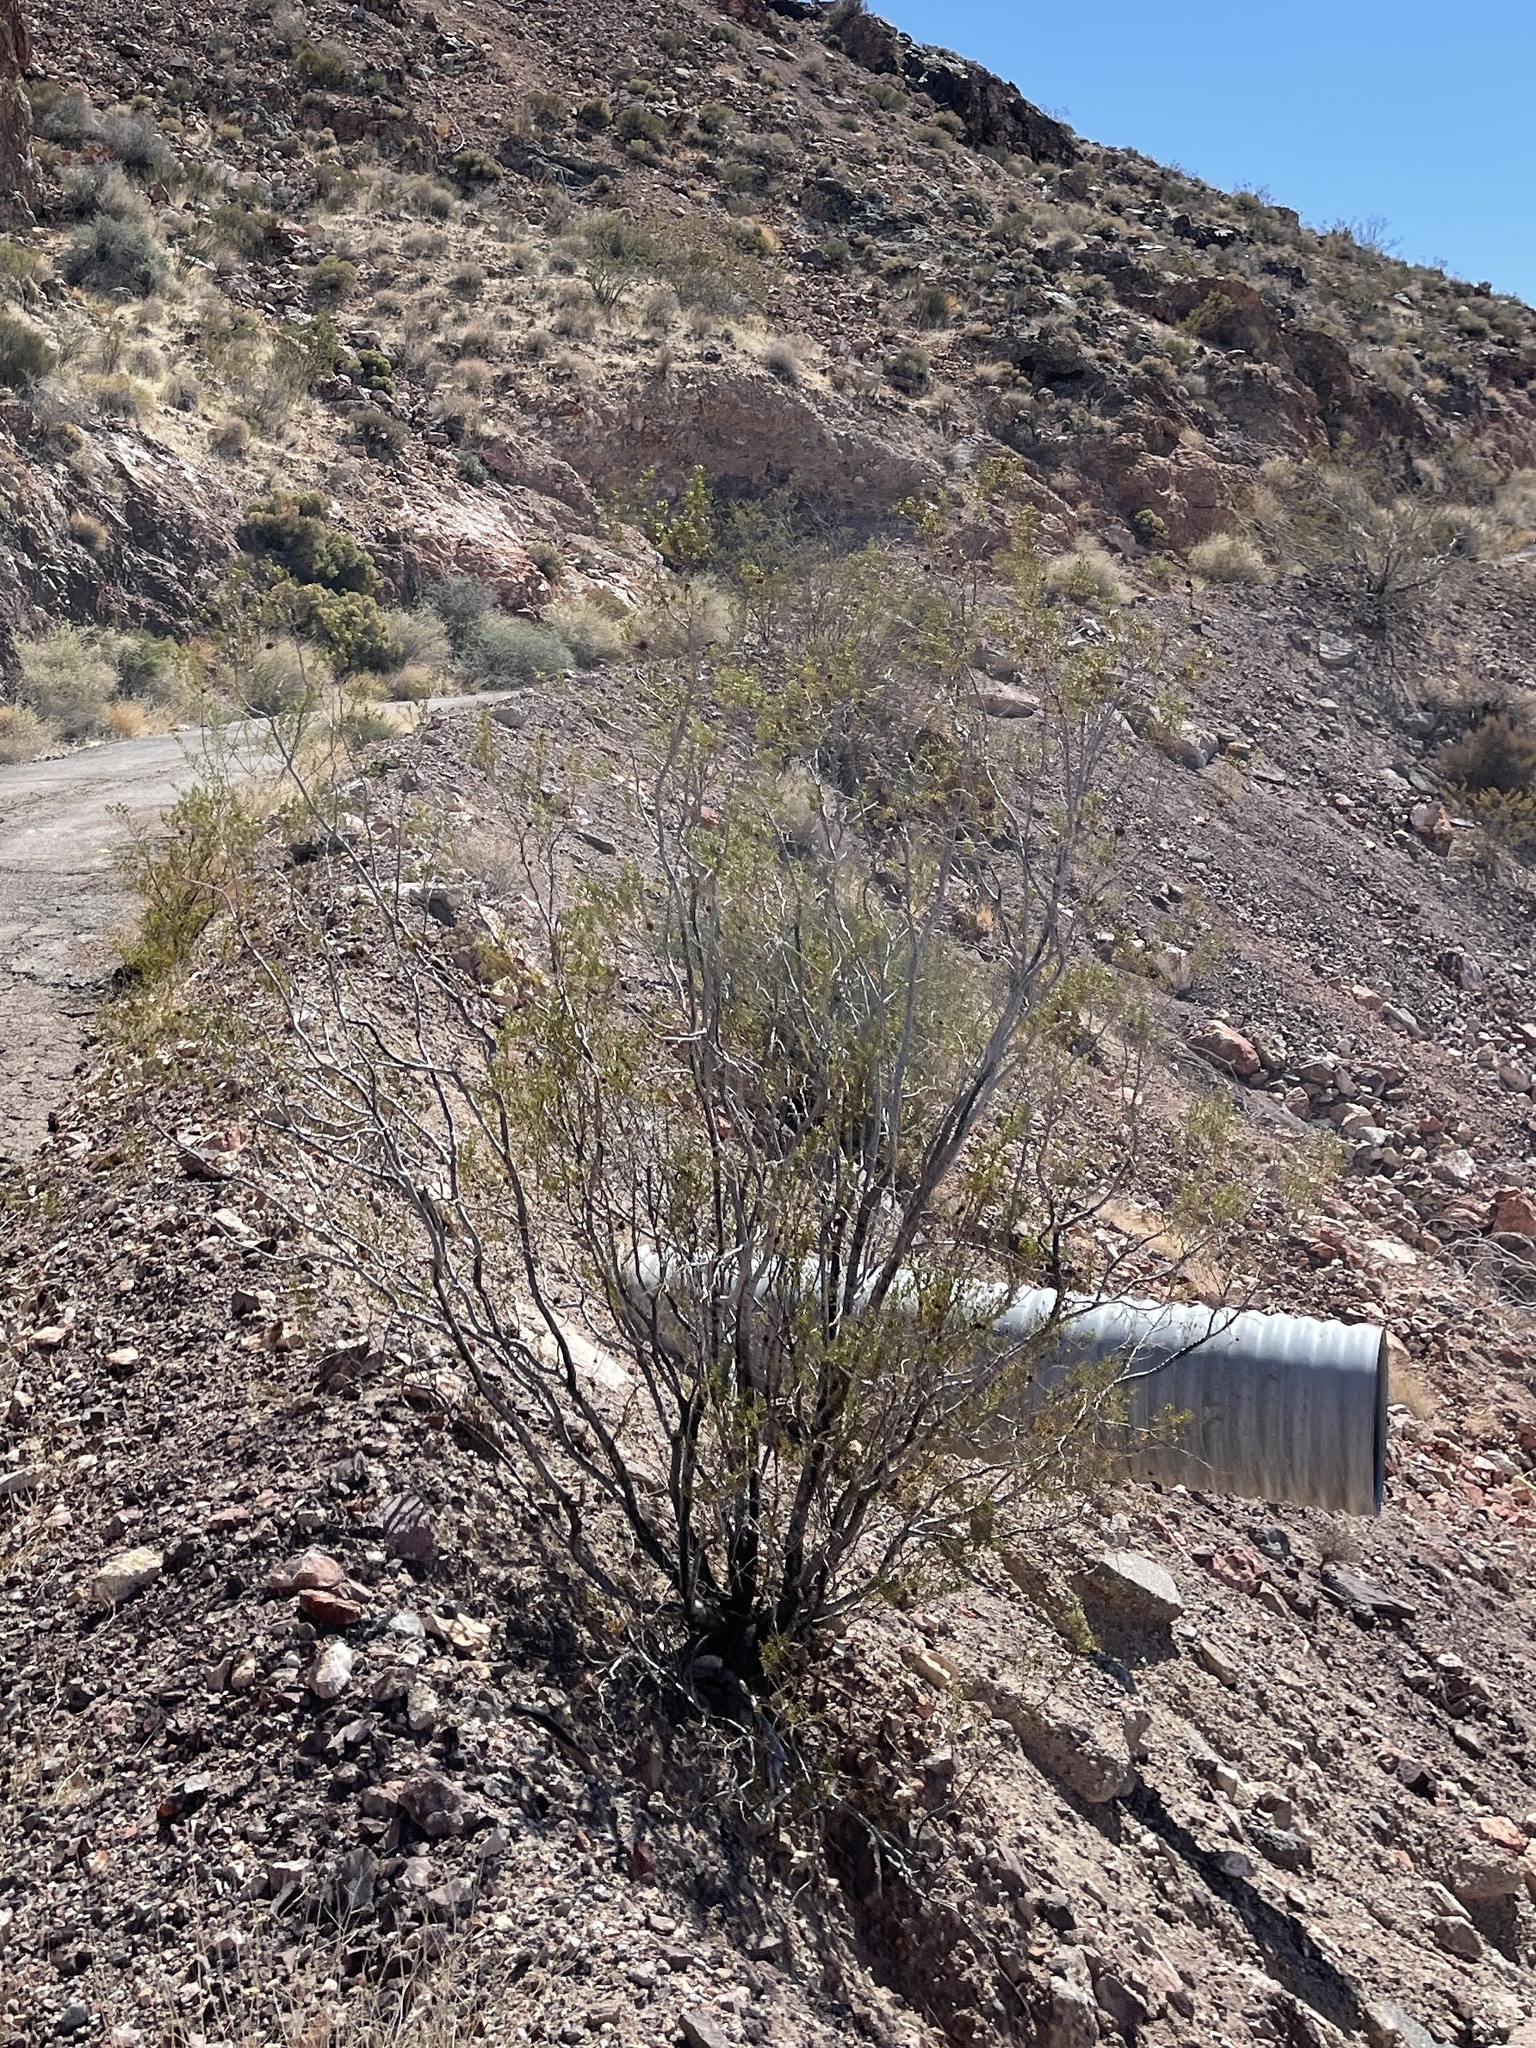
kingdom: Plantae
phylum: Tracheophyta
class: Magnoliopsida
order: Zygophyllales
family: Zygophyllaceae
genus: Larrea
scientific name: Larrea tridentata
